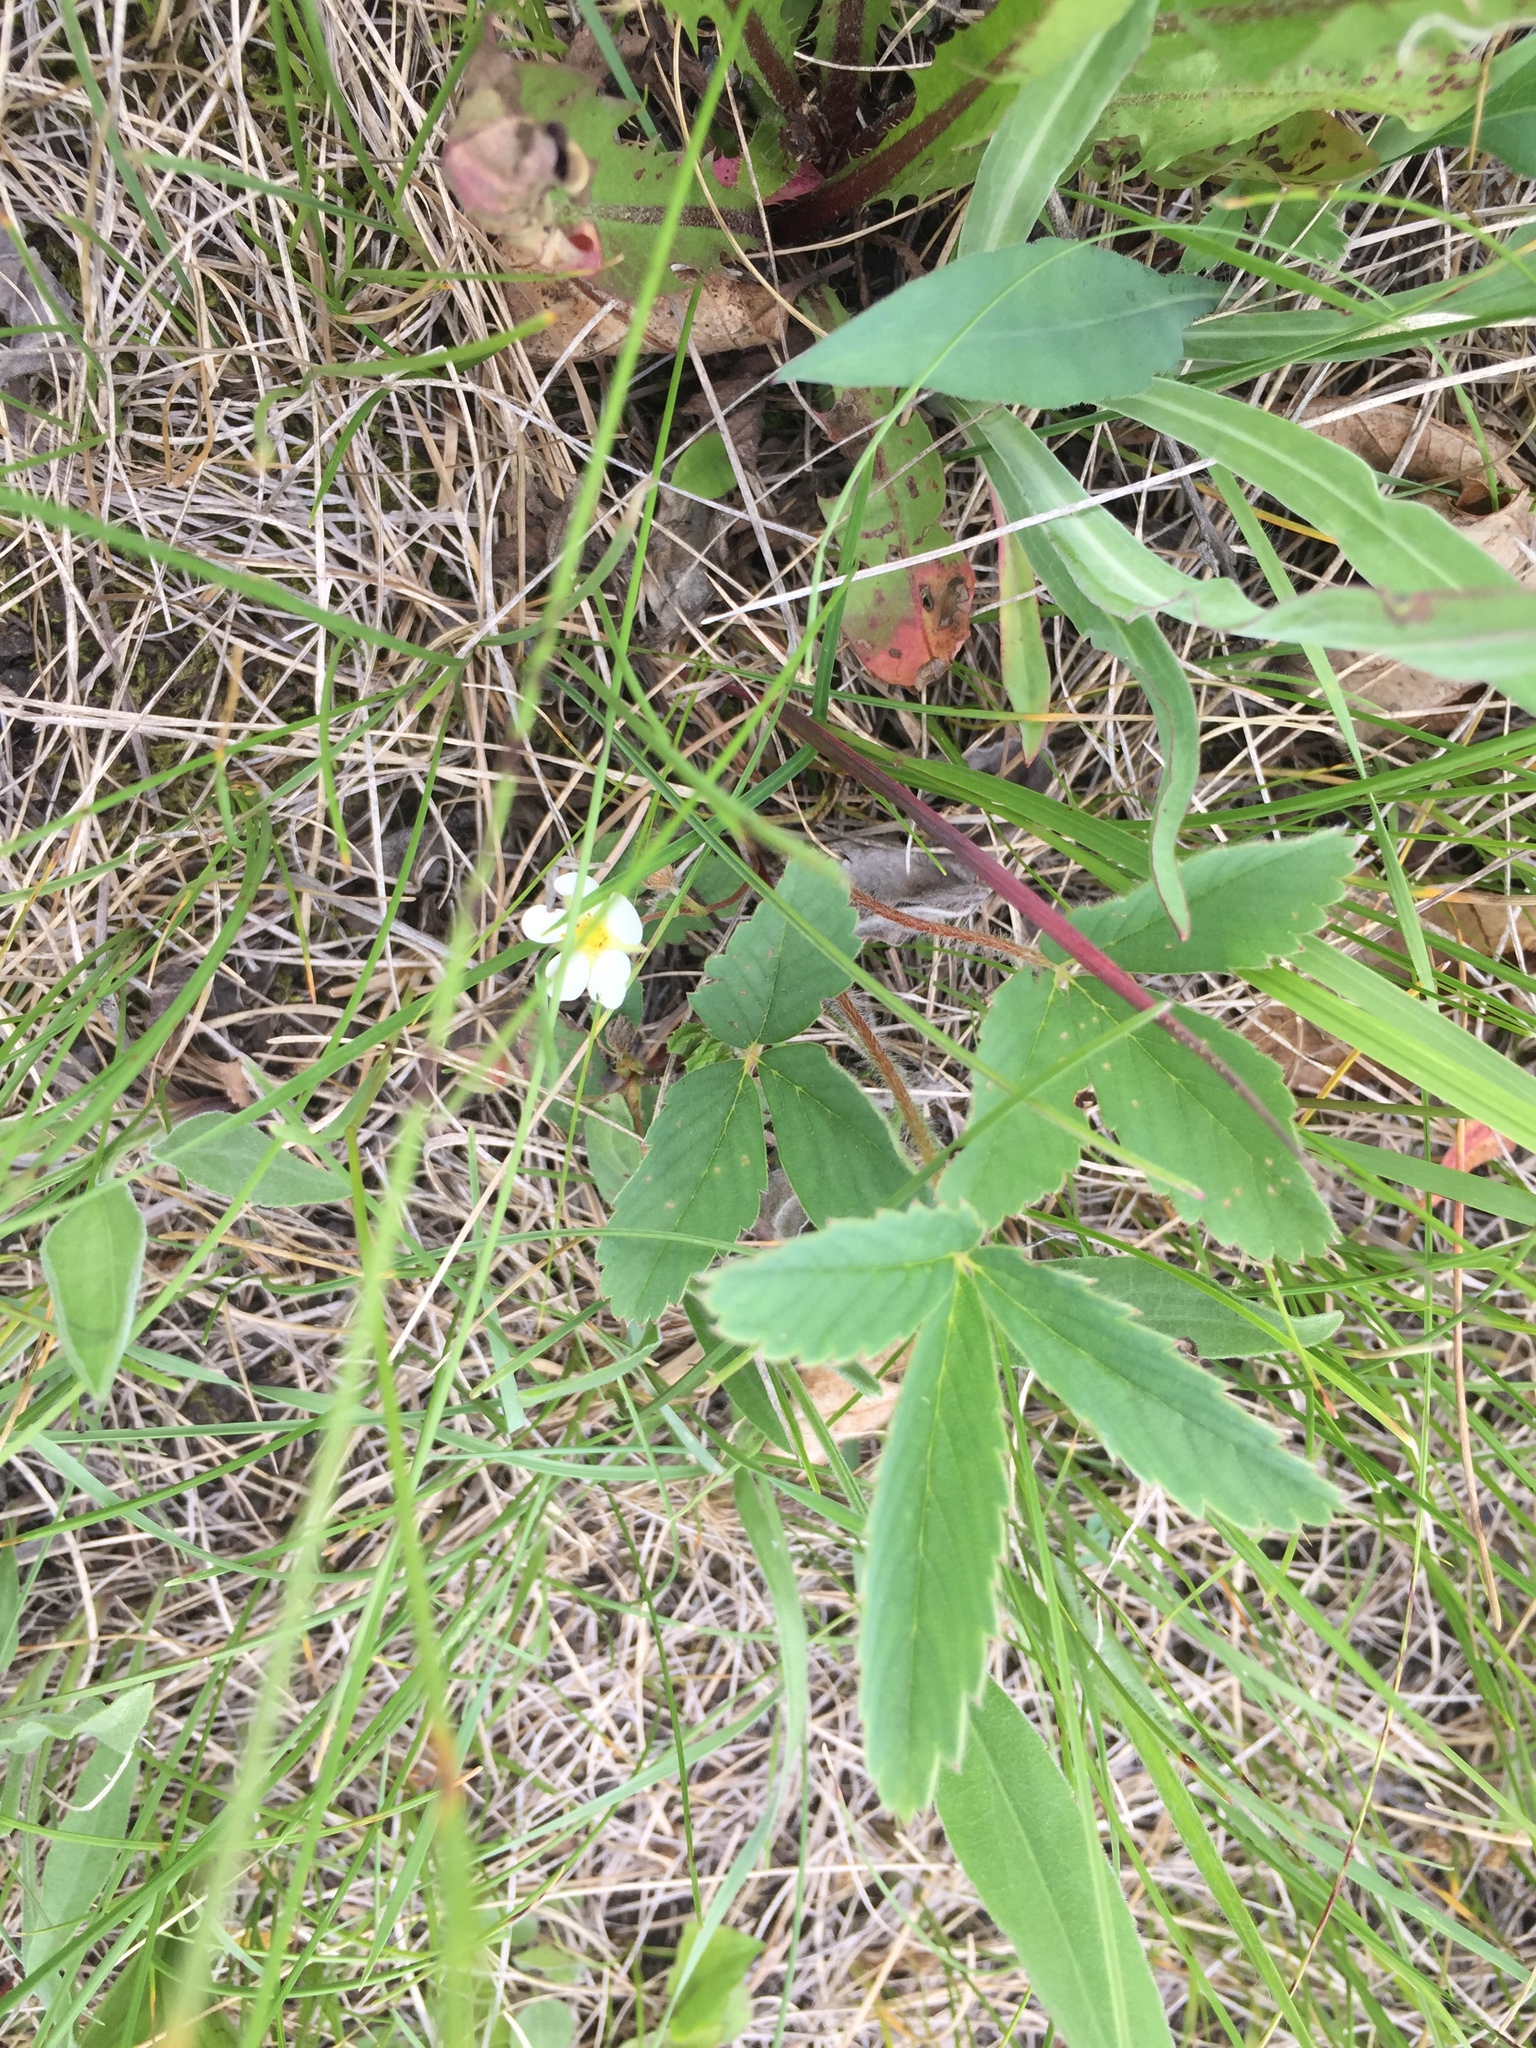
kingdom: Plantae
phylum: Tracheophyta
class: Magnoliopsida
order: Rosales
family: Rosaceae
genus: Fragaria
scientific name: Fragaria virginiana
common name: Thickleaved wild strawberry
